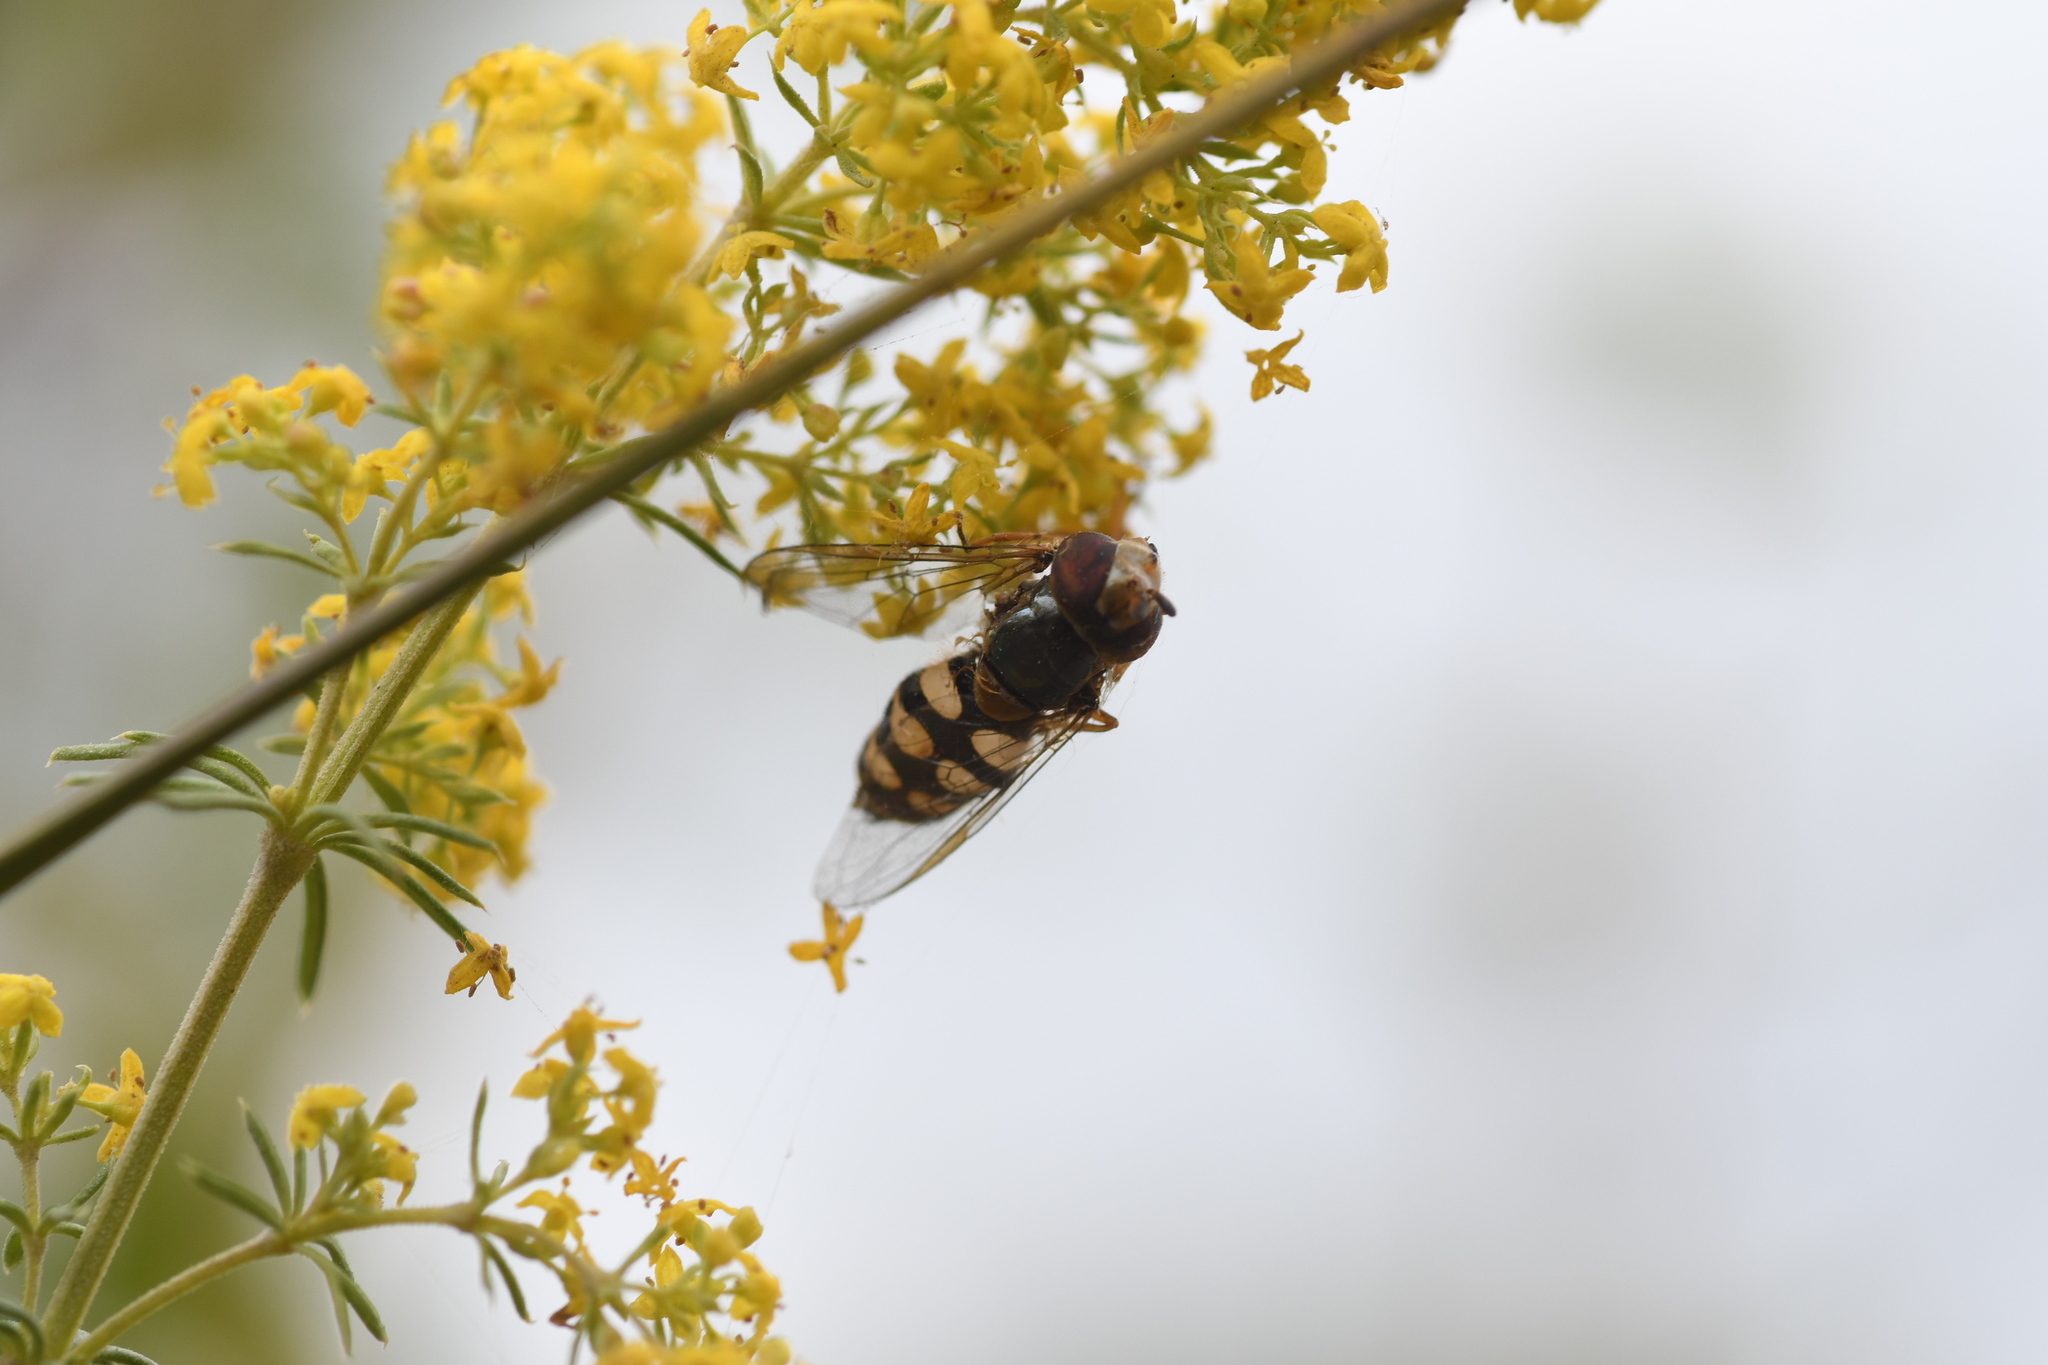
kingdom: Animalia
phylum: Arthropoda
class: Insecta
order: Diptera
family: Syrphidae
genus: Eupeodes
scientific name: Eupeodes corollae
